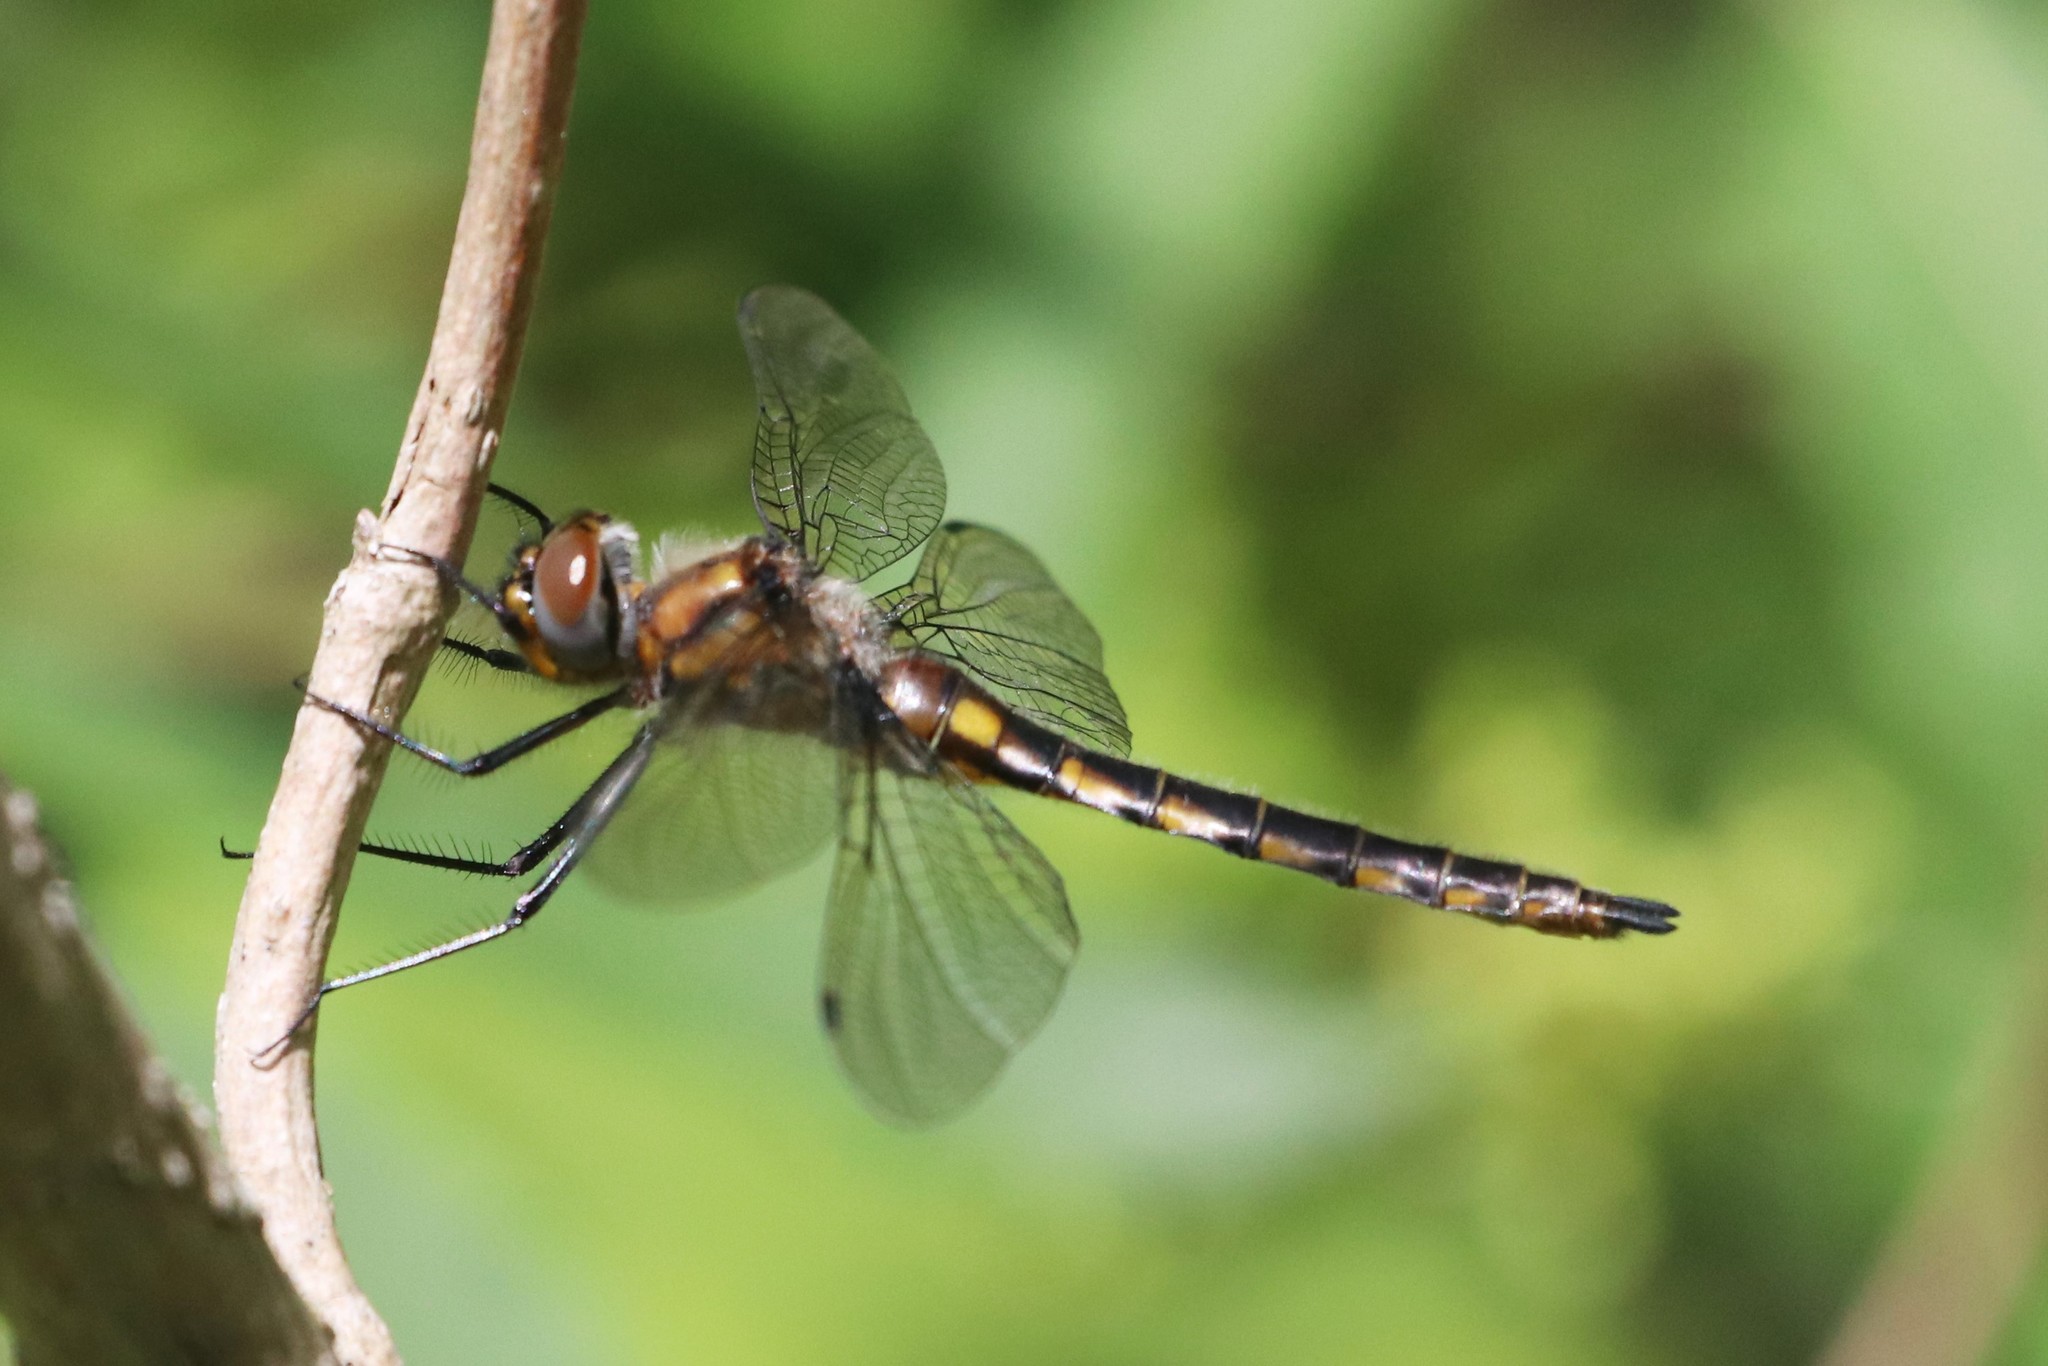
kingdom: Animalia
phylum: Arthropoda
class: Insecta
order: Odonata
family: Corduliidae
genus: Epitheca
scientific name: Epitheca spinigera
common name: Spiny baskettail
